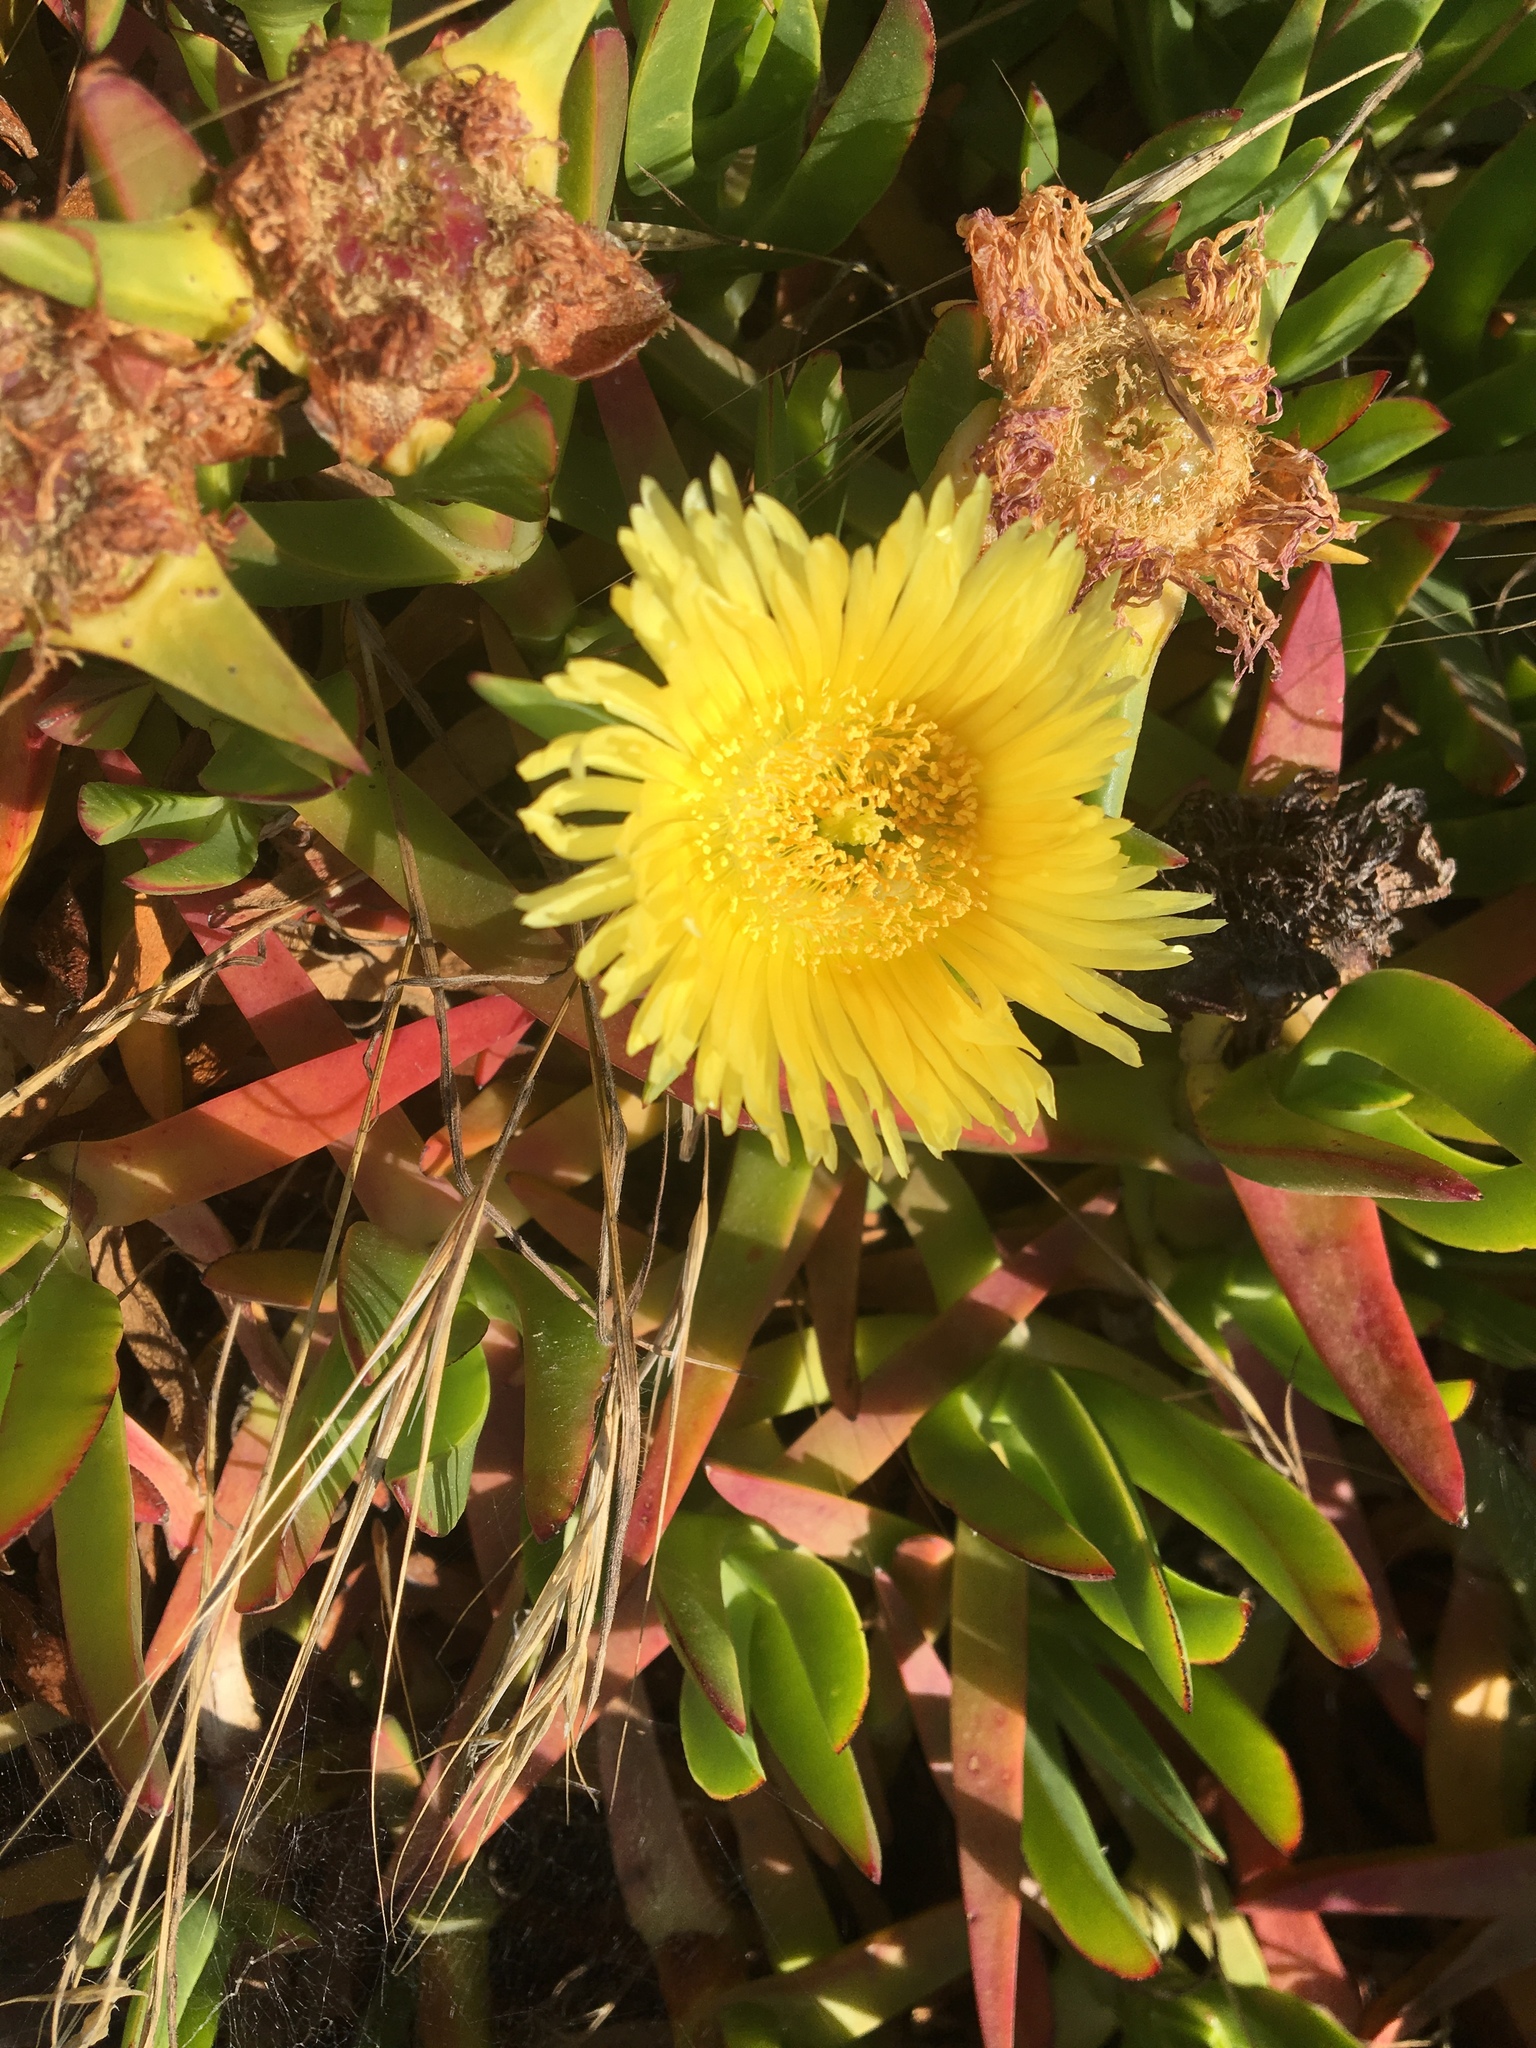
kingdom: Plantae
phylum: Tracheophyta
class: Magnoliopsida
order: Caryophyllales
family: Aizoaceae
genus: Carpobrotus
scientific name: Carpobrotus edulis
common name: Hottentot-fig
